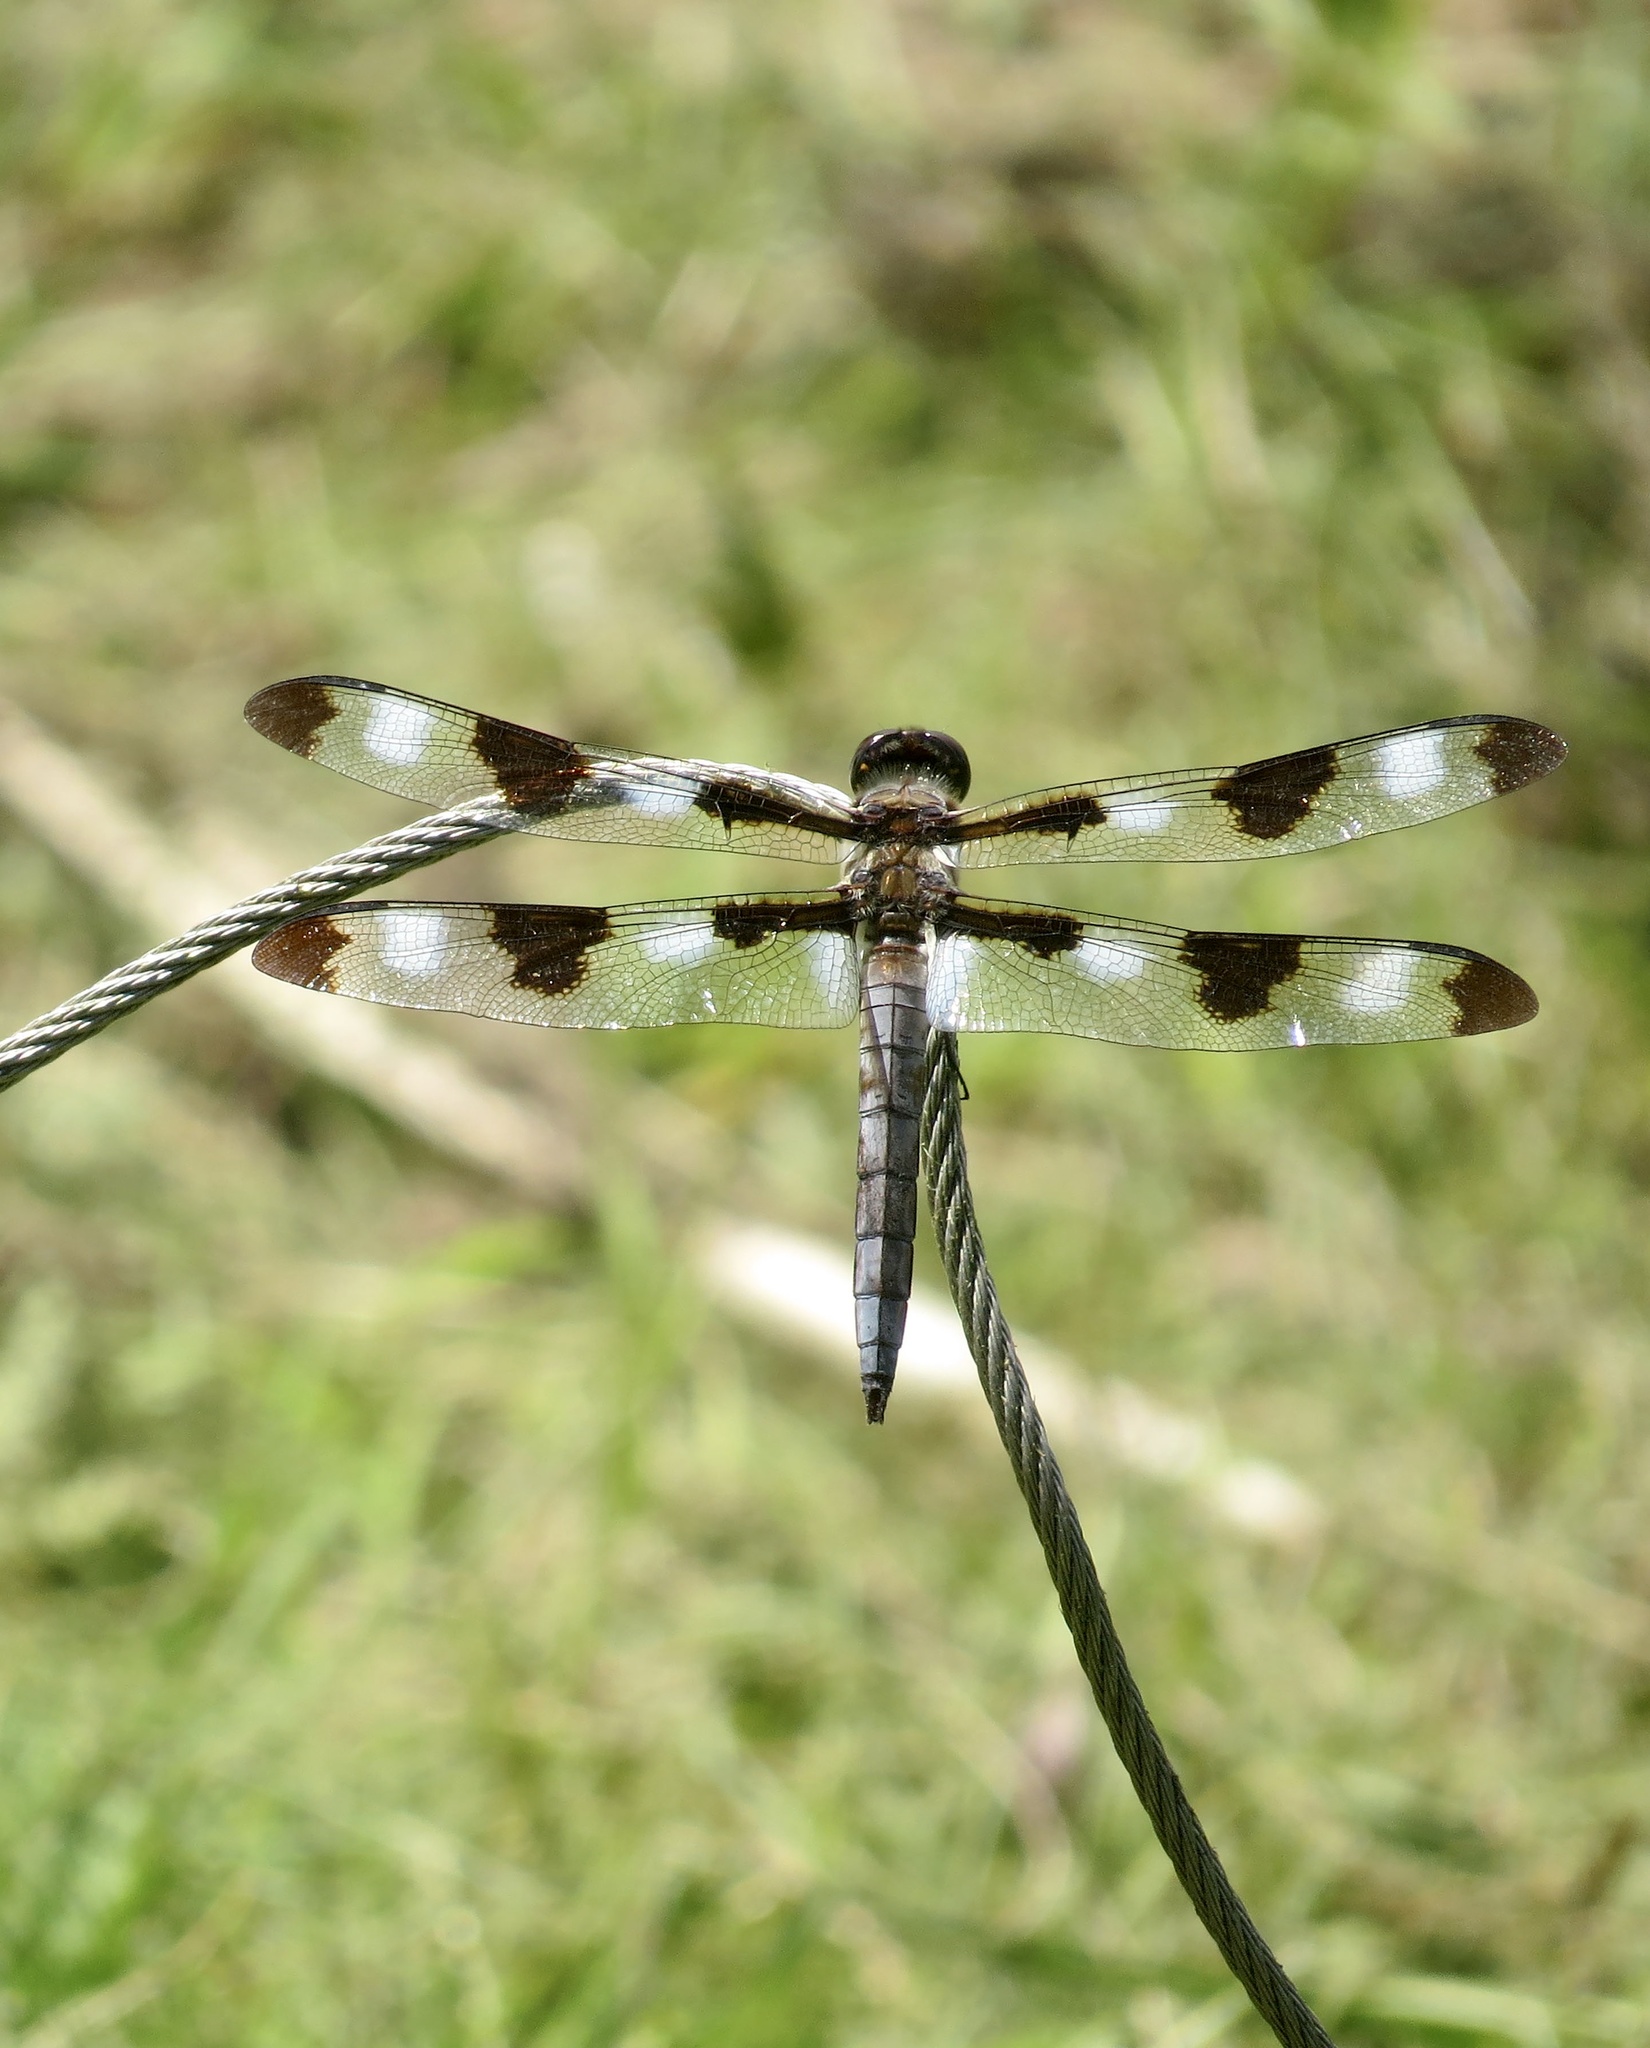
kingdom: Animalia
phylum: Arthropoda
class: Insecta
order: Odonata
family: Libellulidae
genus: Libellula
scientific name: Libellula pulchella
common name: Twelve-spotted skimmer
